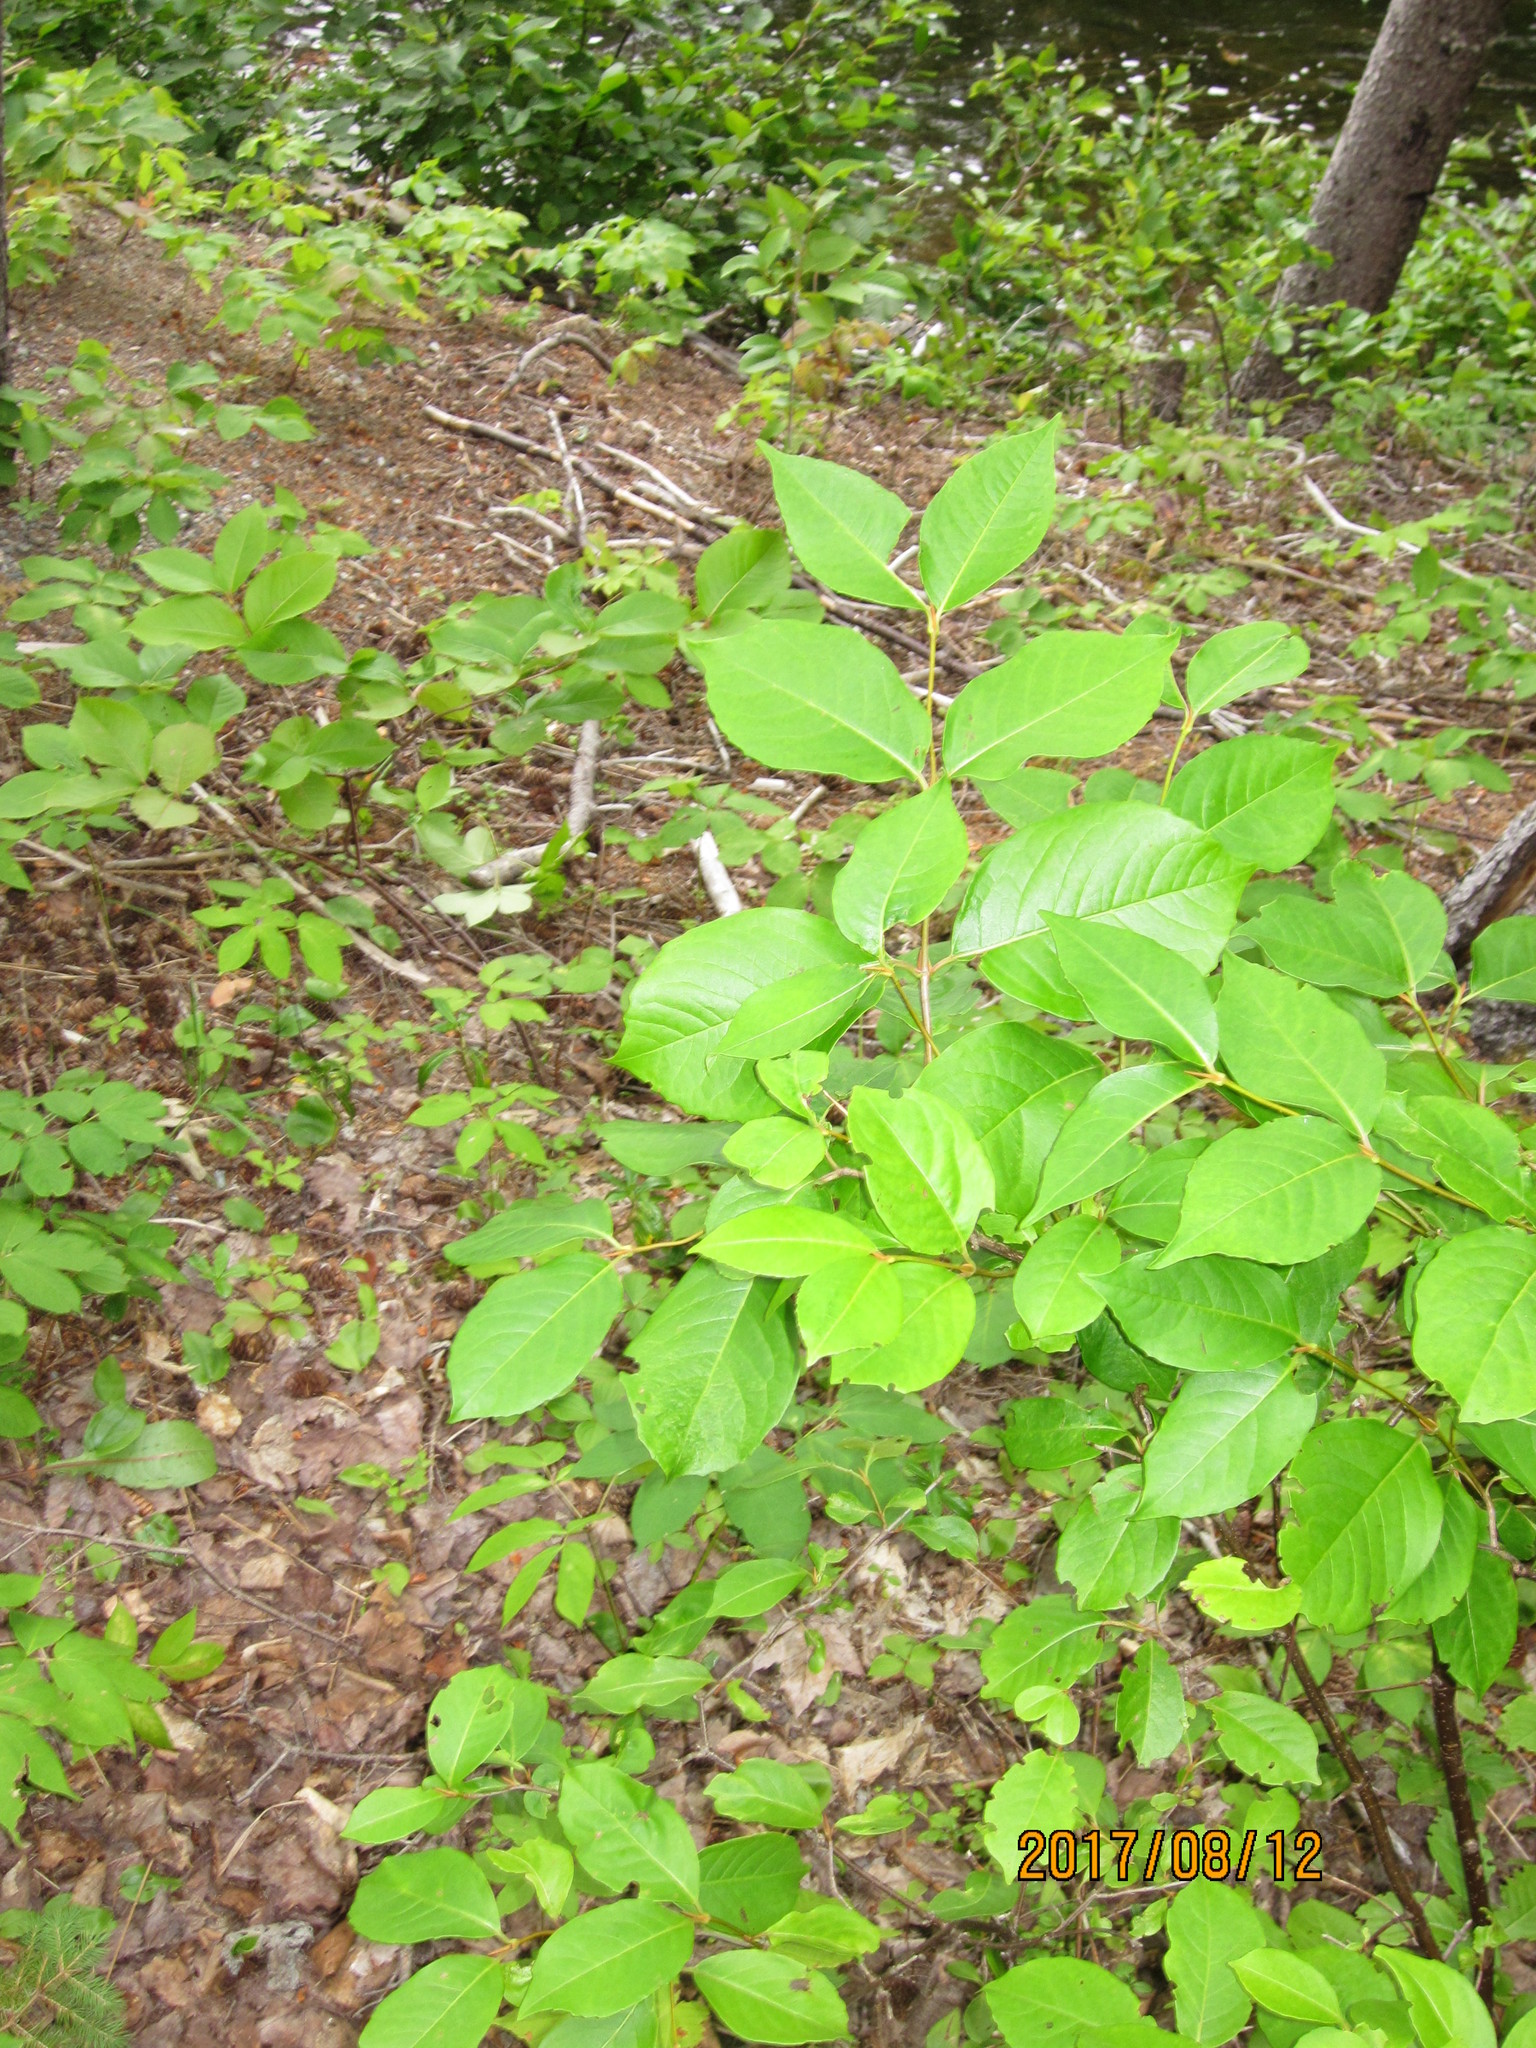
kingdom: Plantae
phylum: Tracheophyta
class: Magnoliopsida
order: Dipsacales
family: Viburnaceae
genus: Viburnum
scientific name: Viburnum cassinoides
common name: Swamp haw
